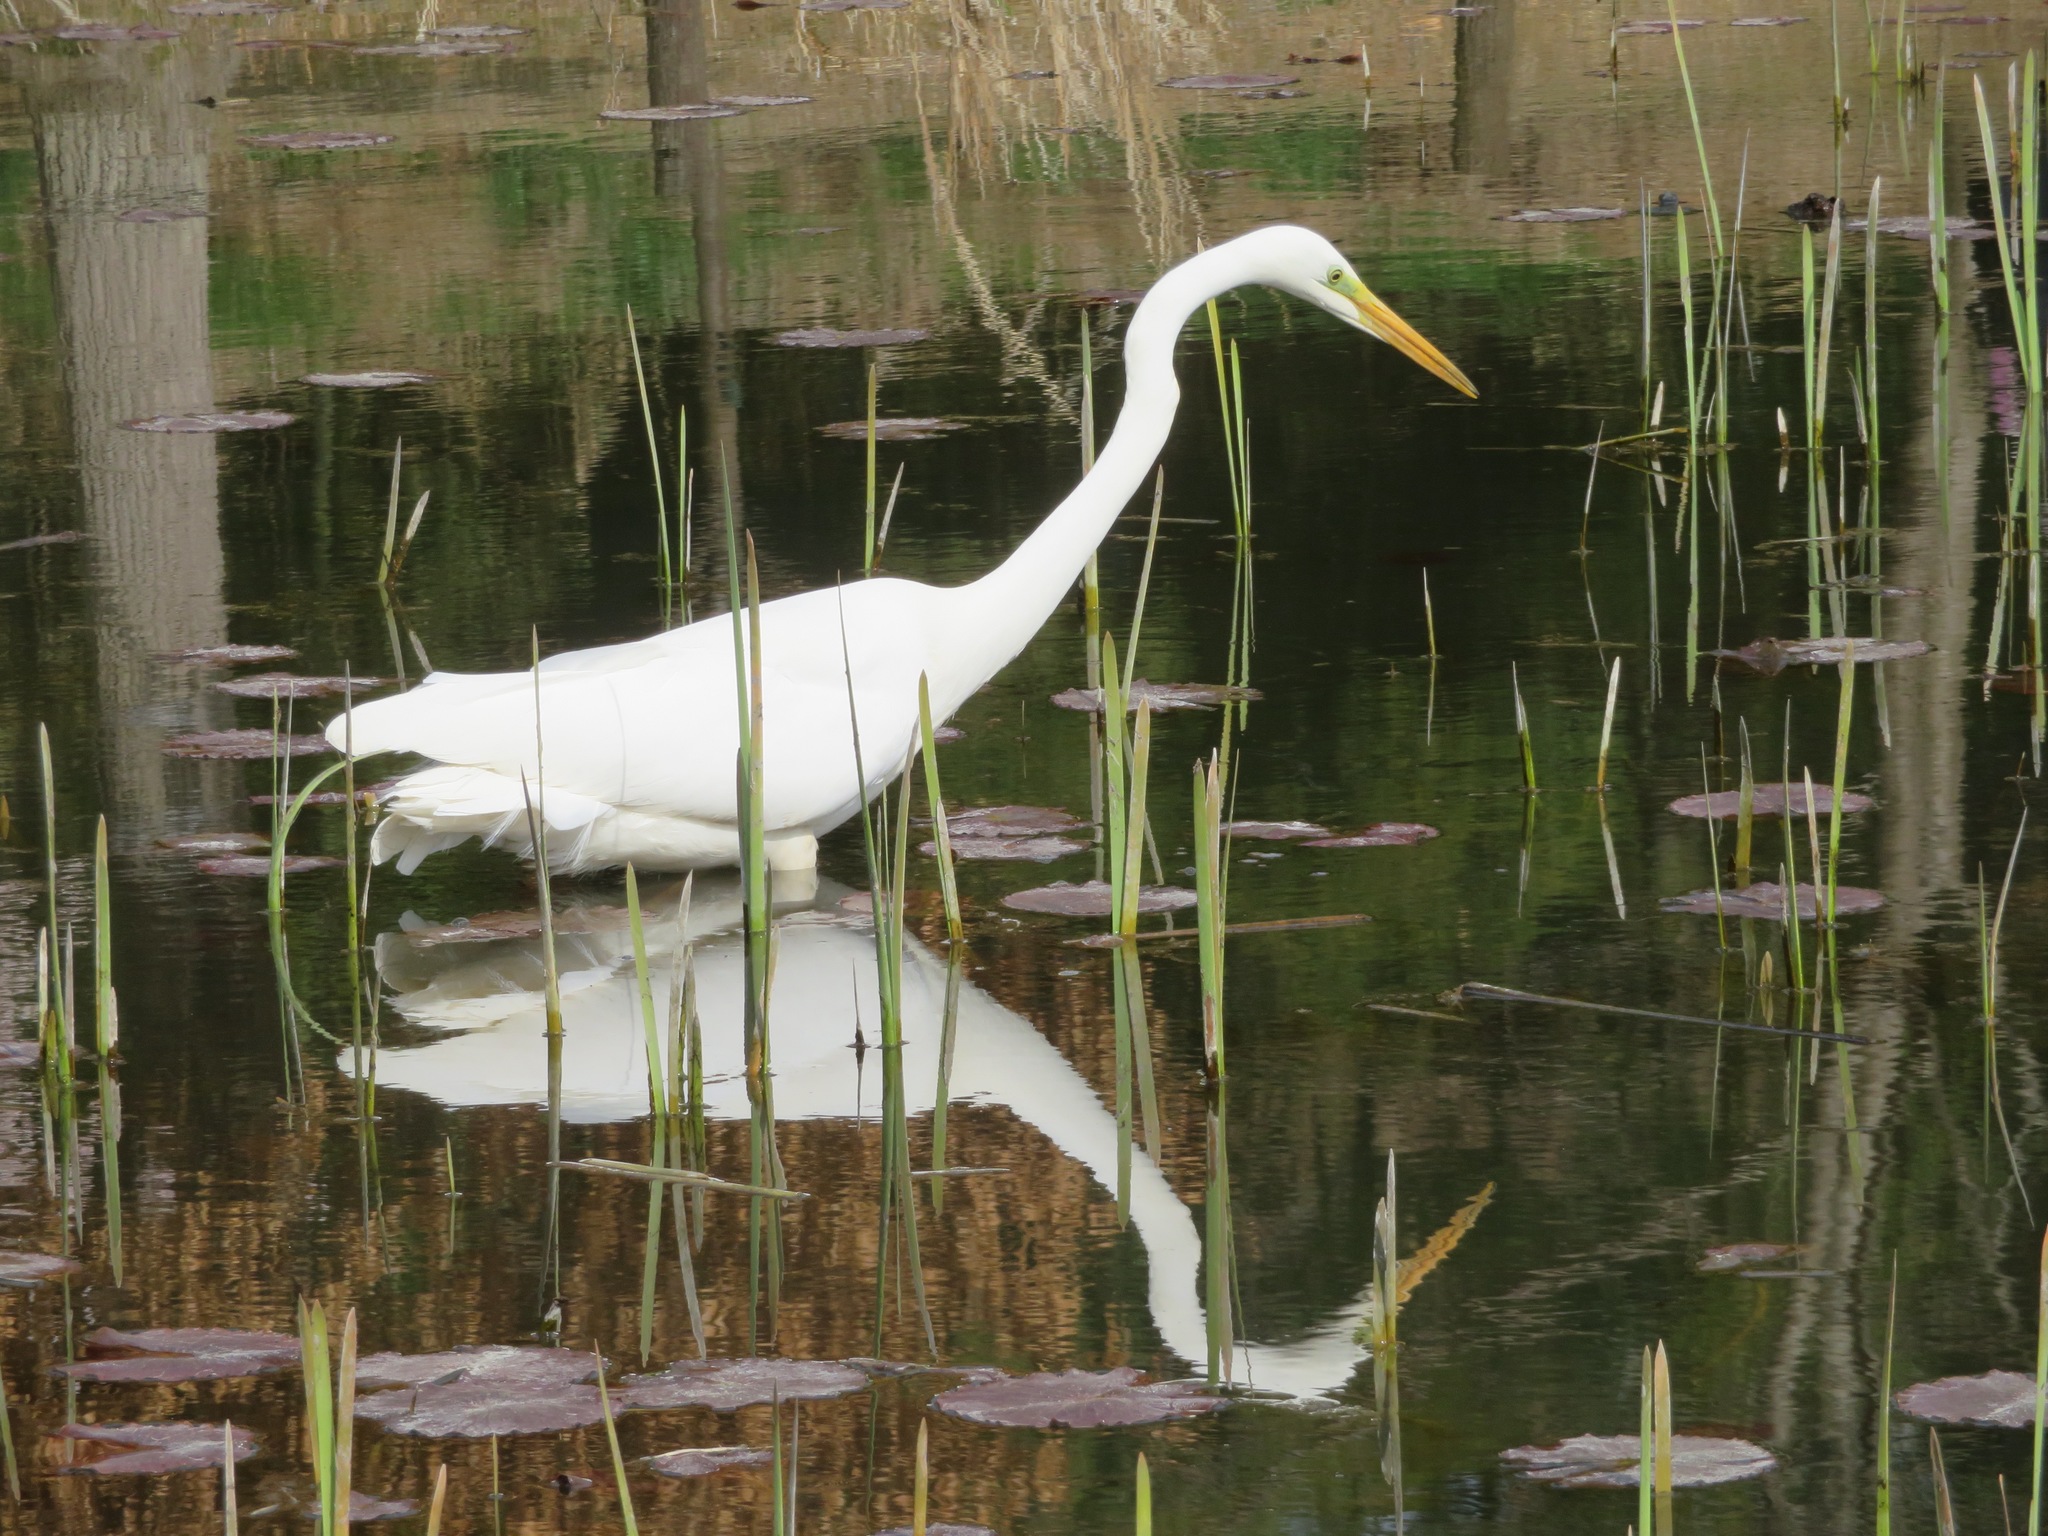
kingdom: Animalia
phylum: Chordata
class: Aves
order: Pelecaniformes
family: Ardeidae
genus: Ardea
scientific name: Ardea alba
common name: Great egret
